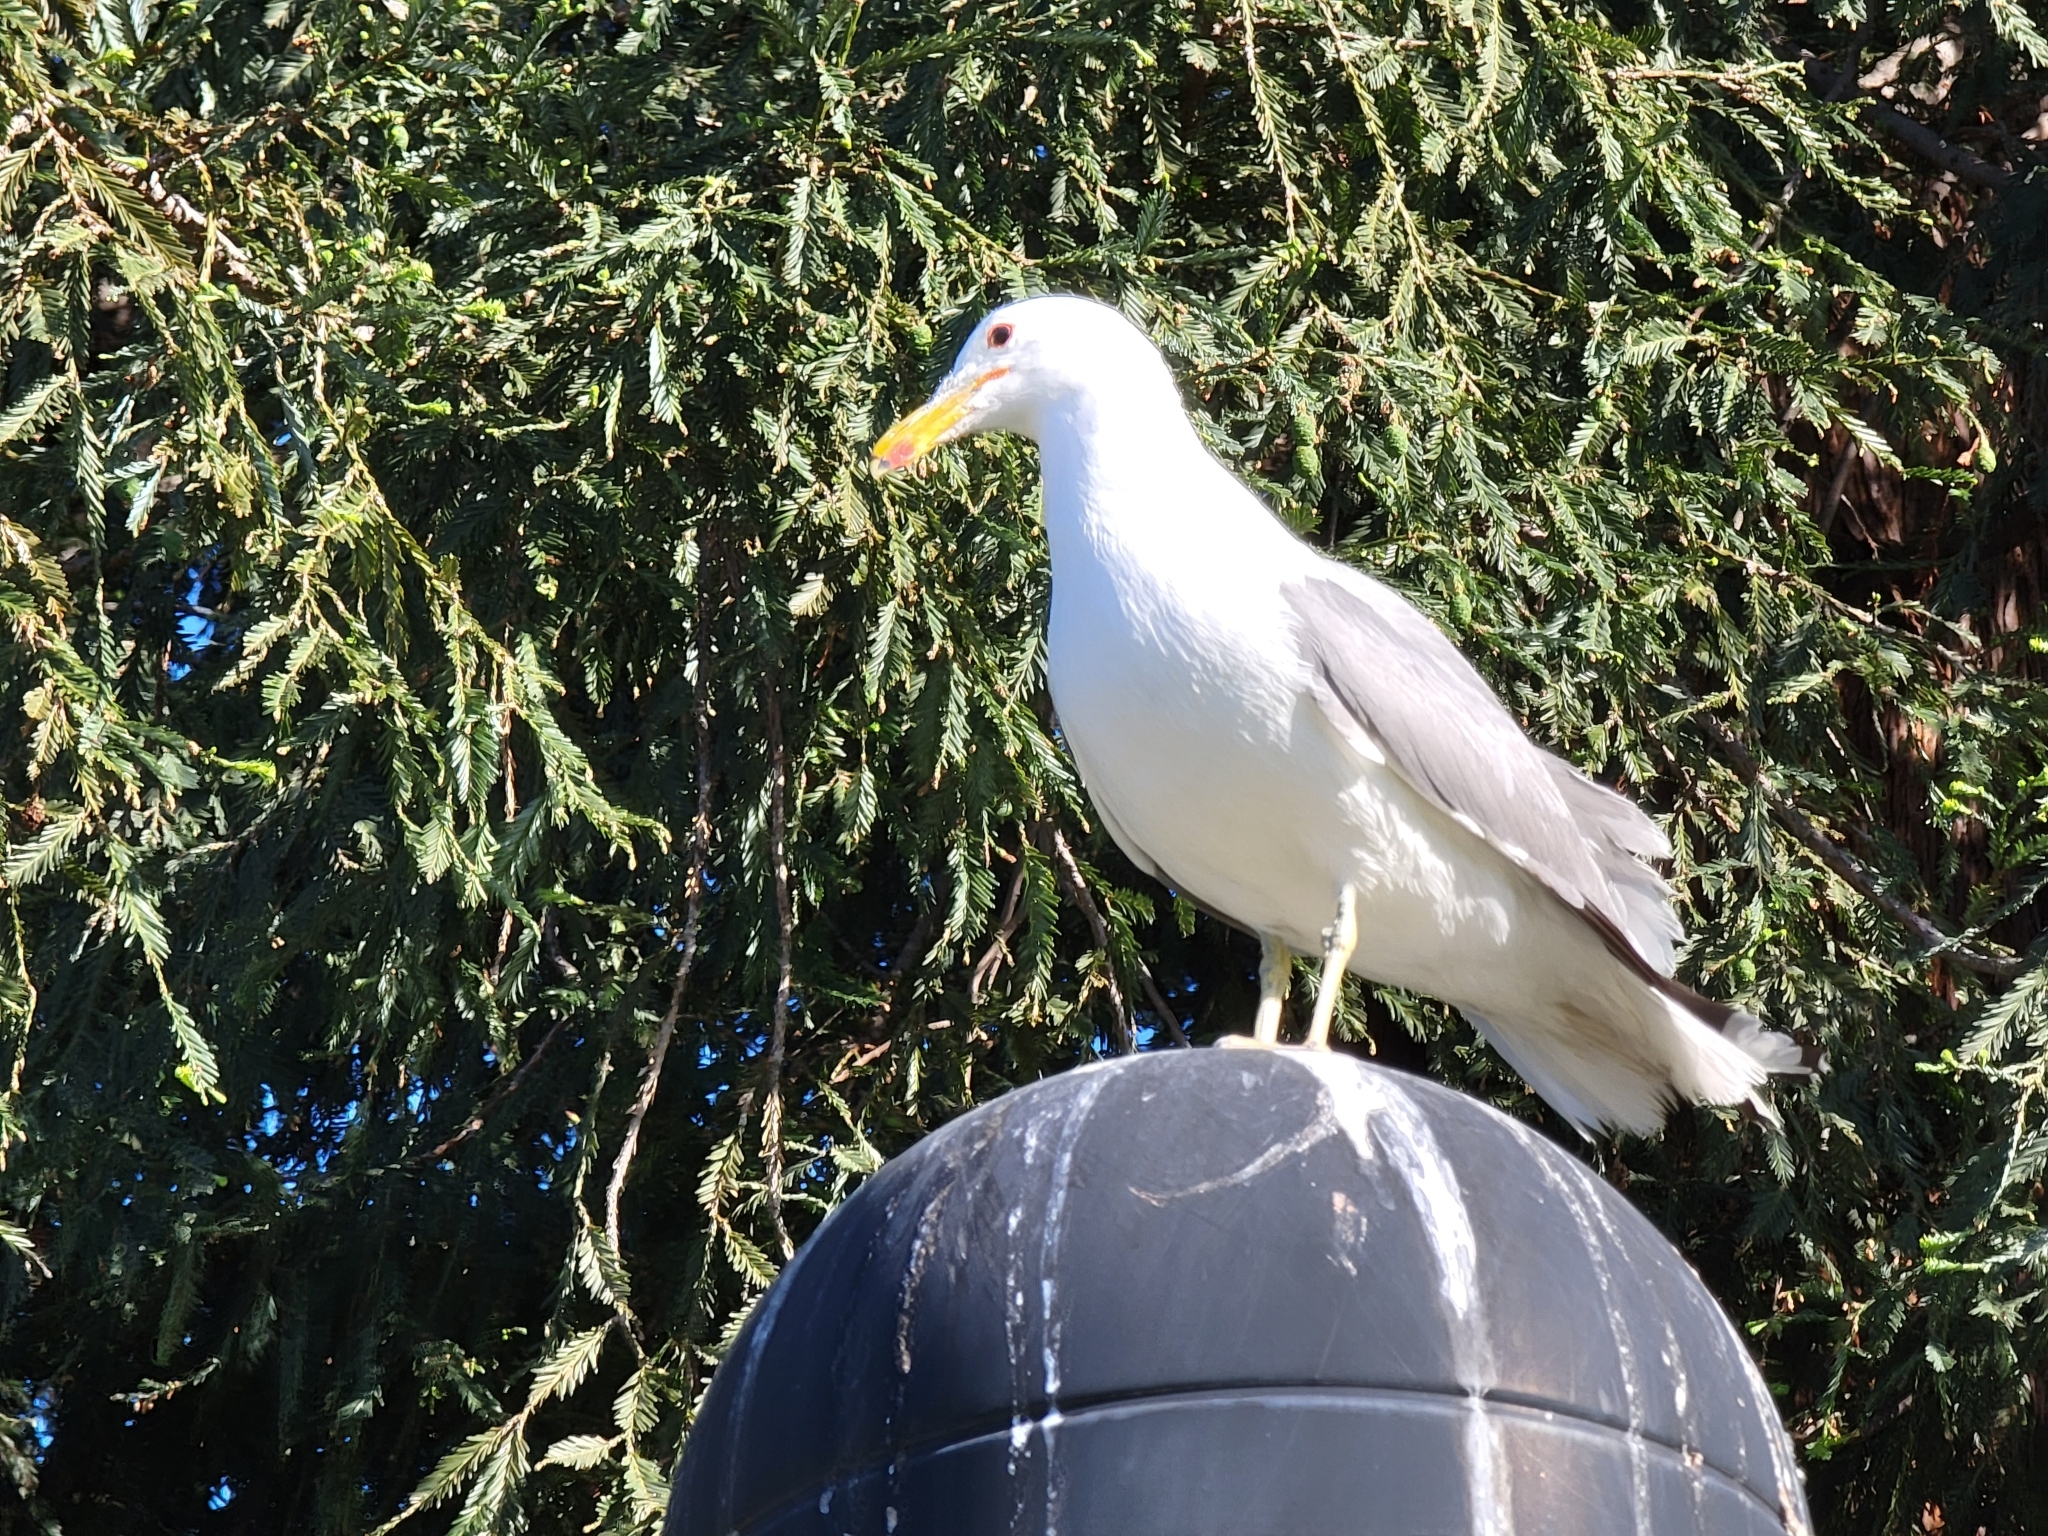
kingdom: Animalia
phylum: Chordata
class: Aves
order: Charadriiformes
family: Laridae
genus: Larus
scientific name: Larus californicus
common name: California gull
